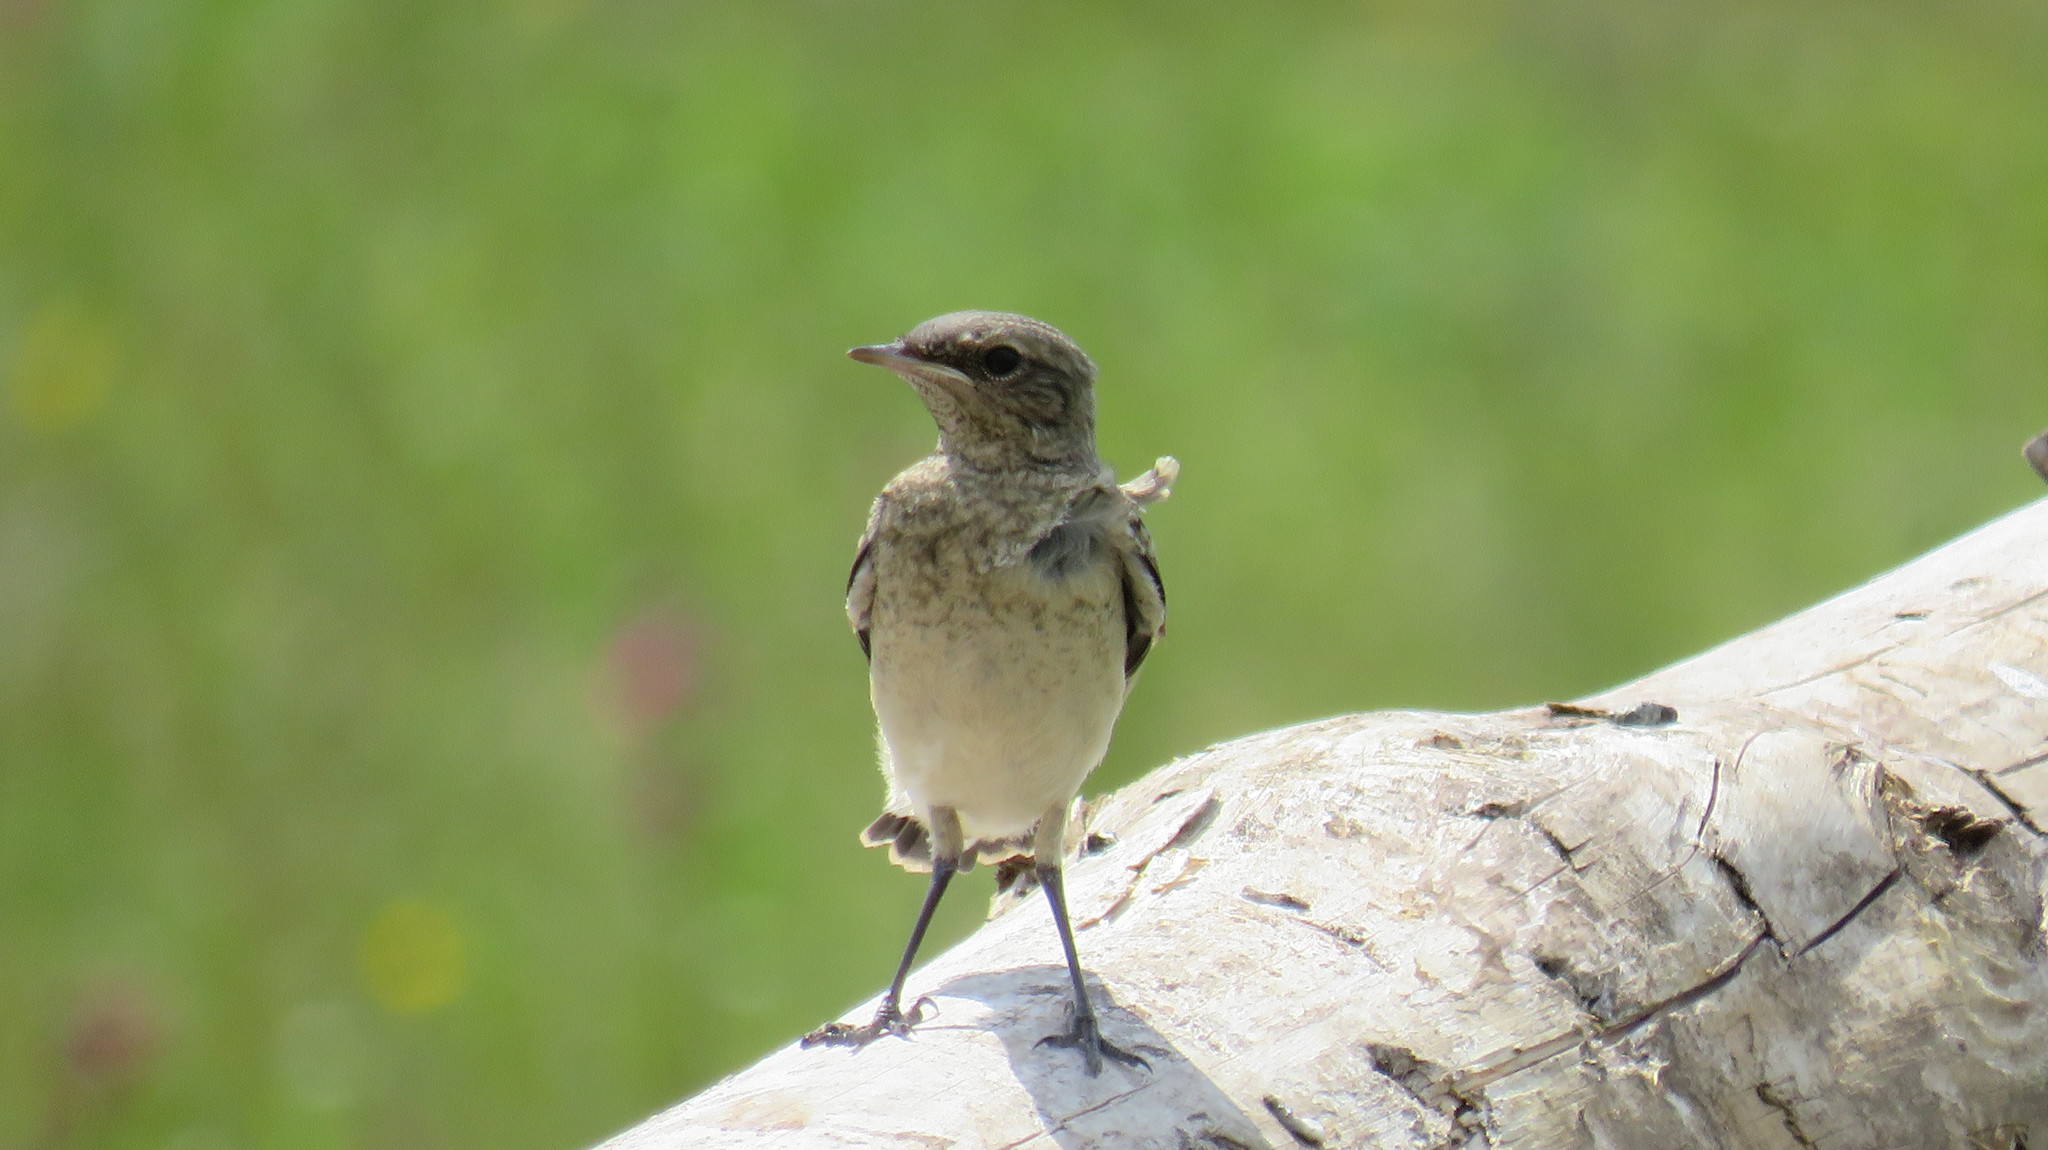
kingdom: Animalia
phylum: Chordata
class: Aves
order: Passeriformes
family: Muscicapidae
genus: Oenanthe
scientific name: Oenanthe oenanthe
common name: Northern wheatear
